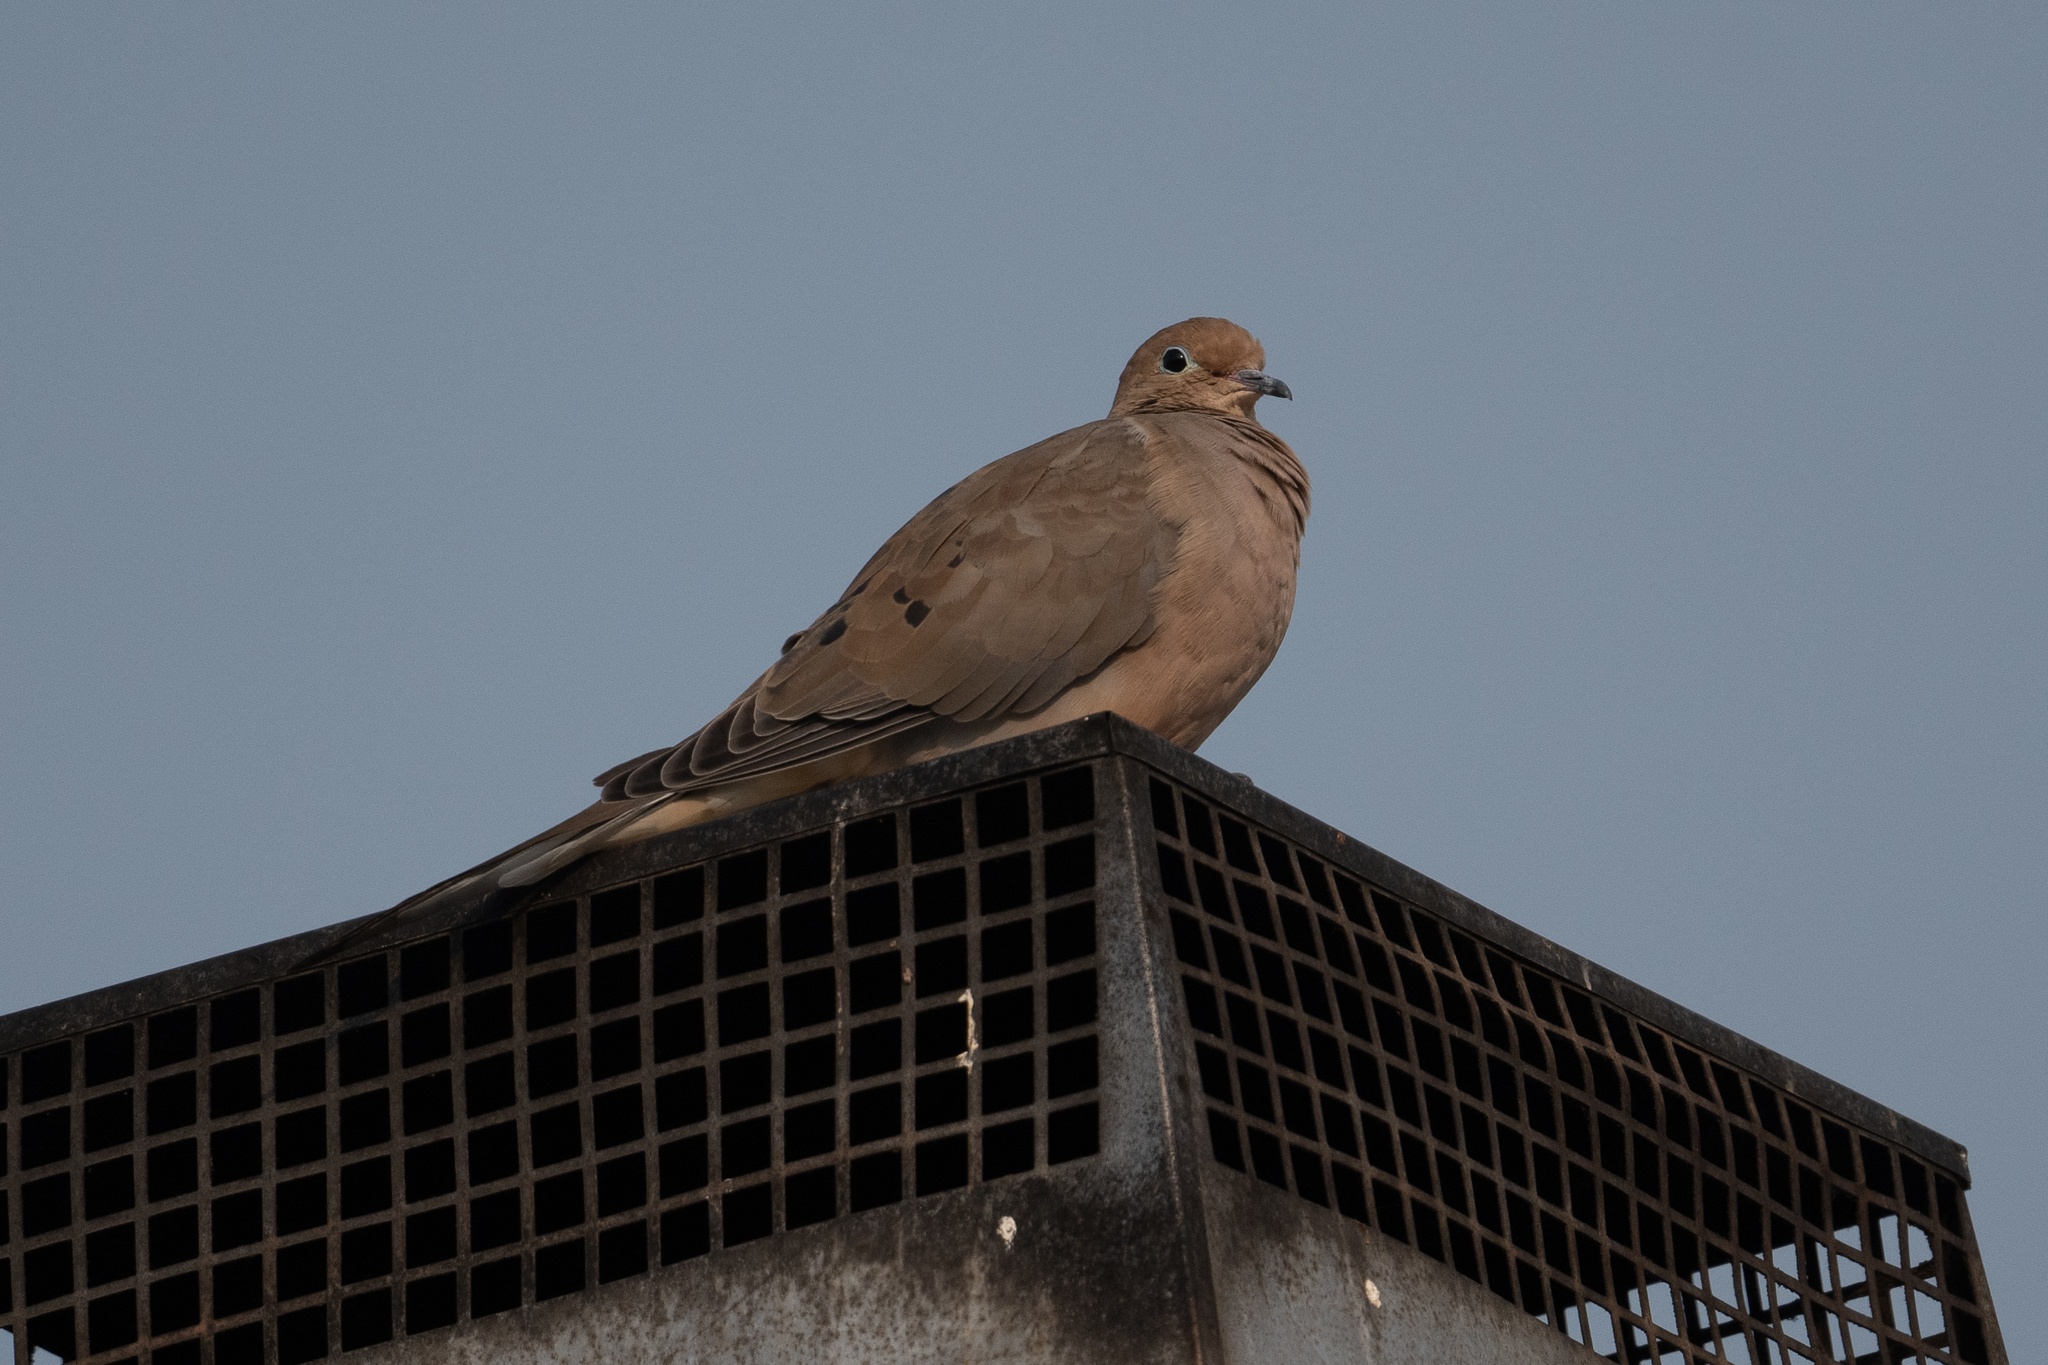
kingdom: Animalia
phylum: Chordata
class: Aves
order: Columbiformes
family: Columbidae
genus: Zenaida
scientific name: Zenaida macroura
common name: Mourning dove
